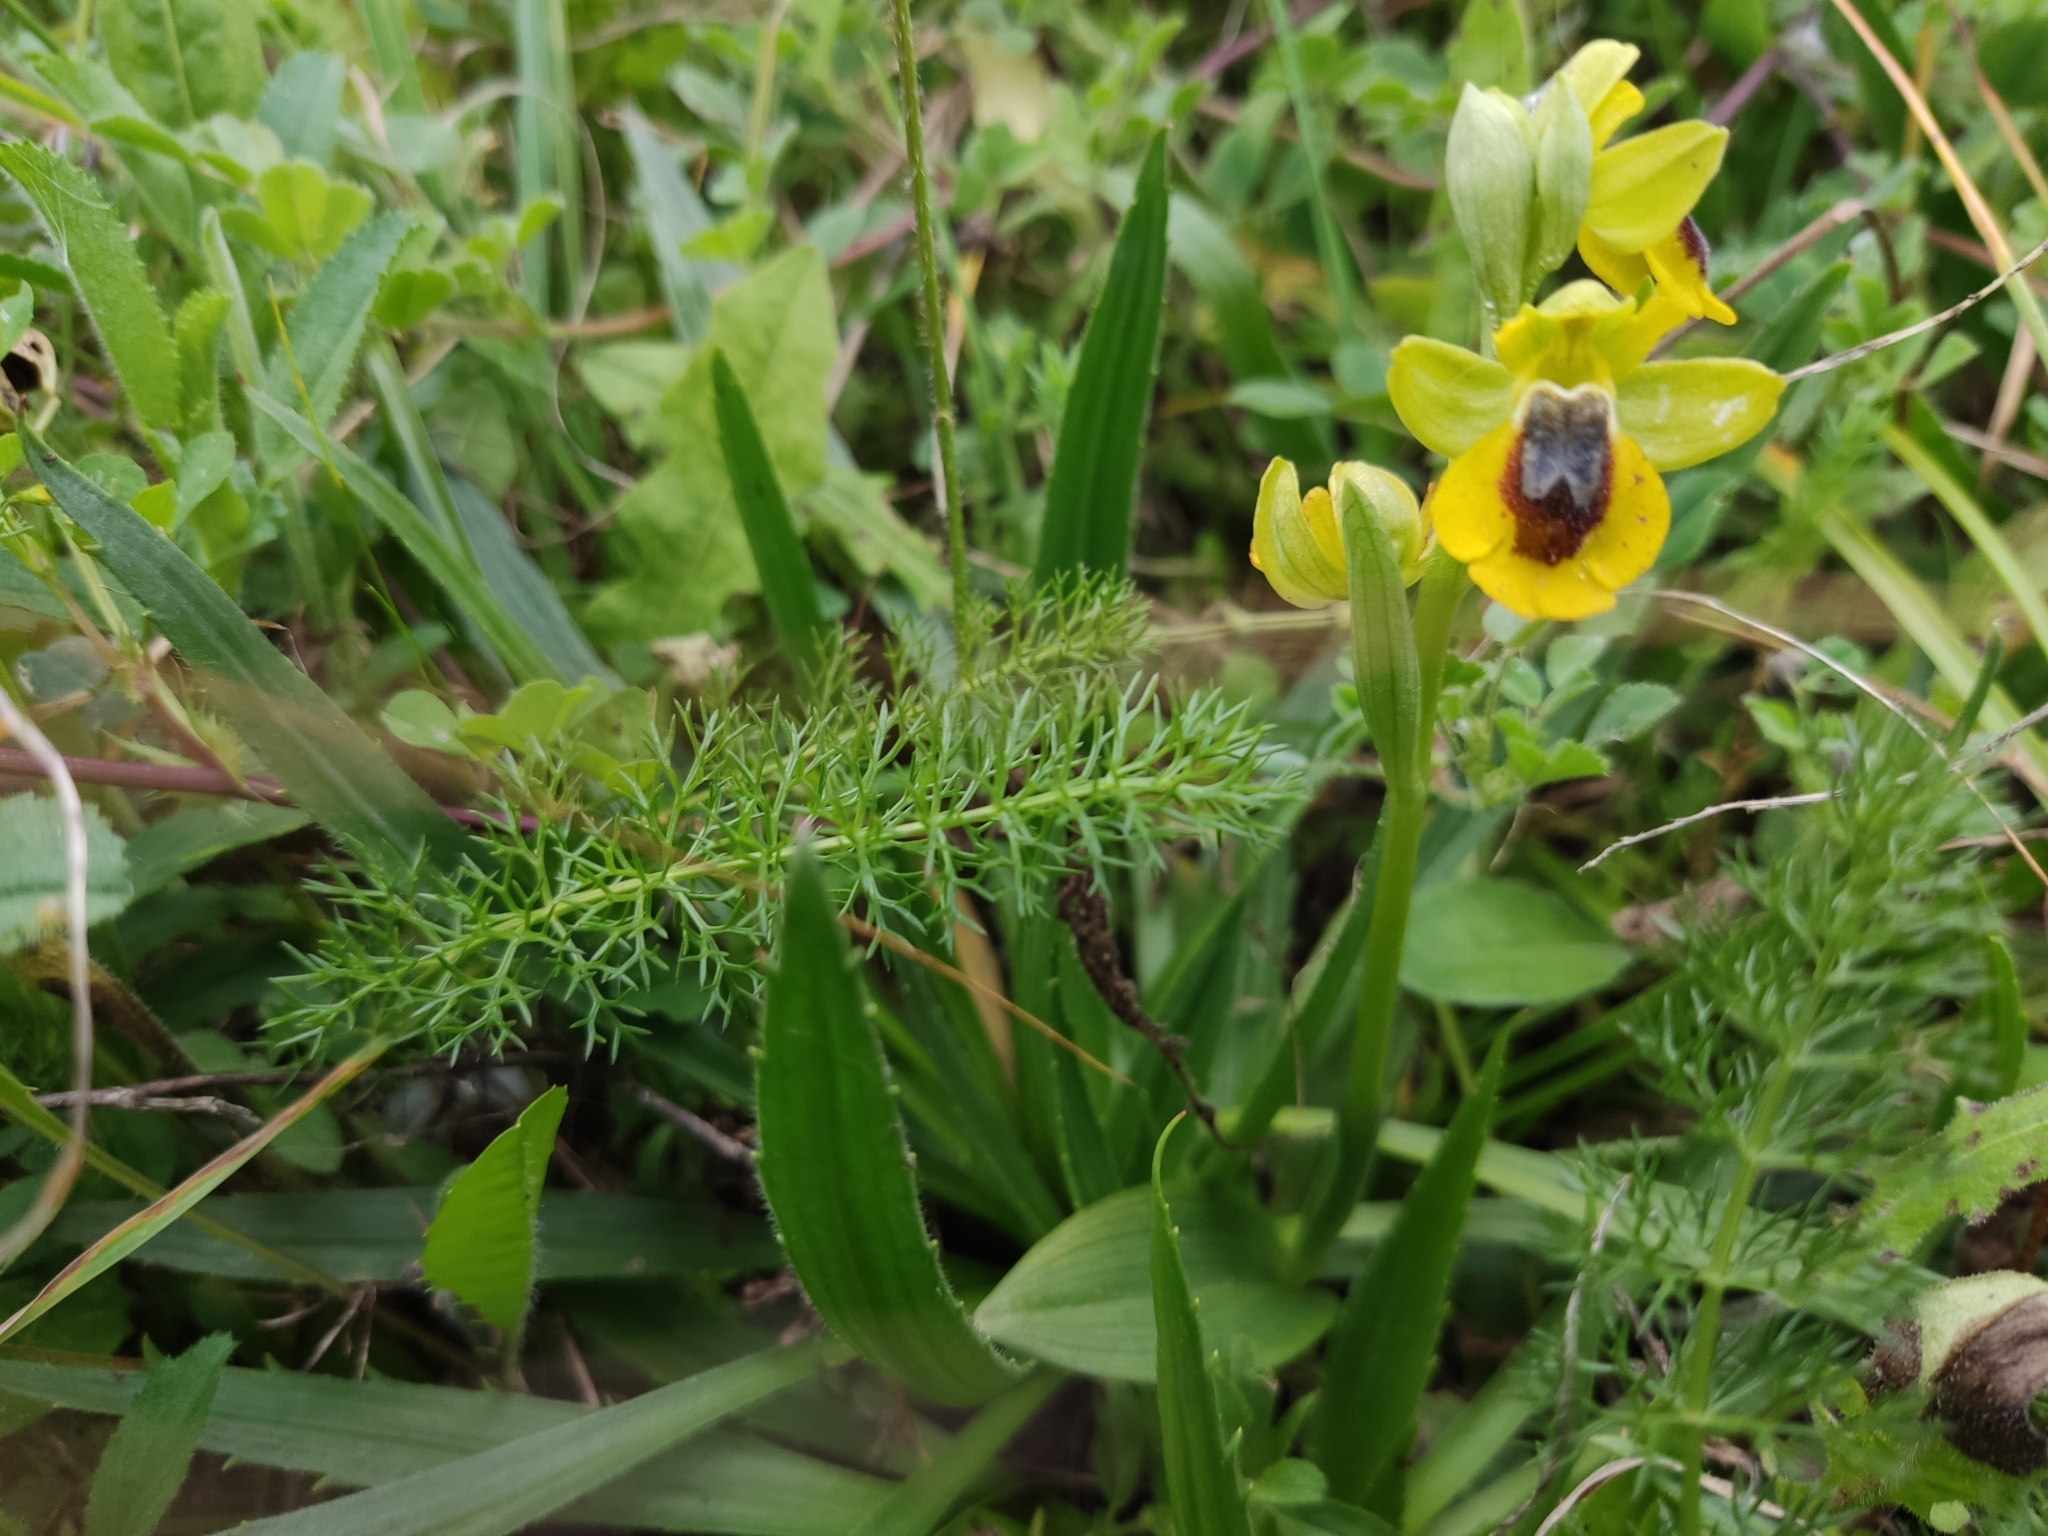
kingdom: Plantae
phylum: Tracheophyta
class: Liliopsida
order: Asparagales
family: Orchidaceae
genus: Ophrys
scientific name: Ophrys lutea
